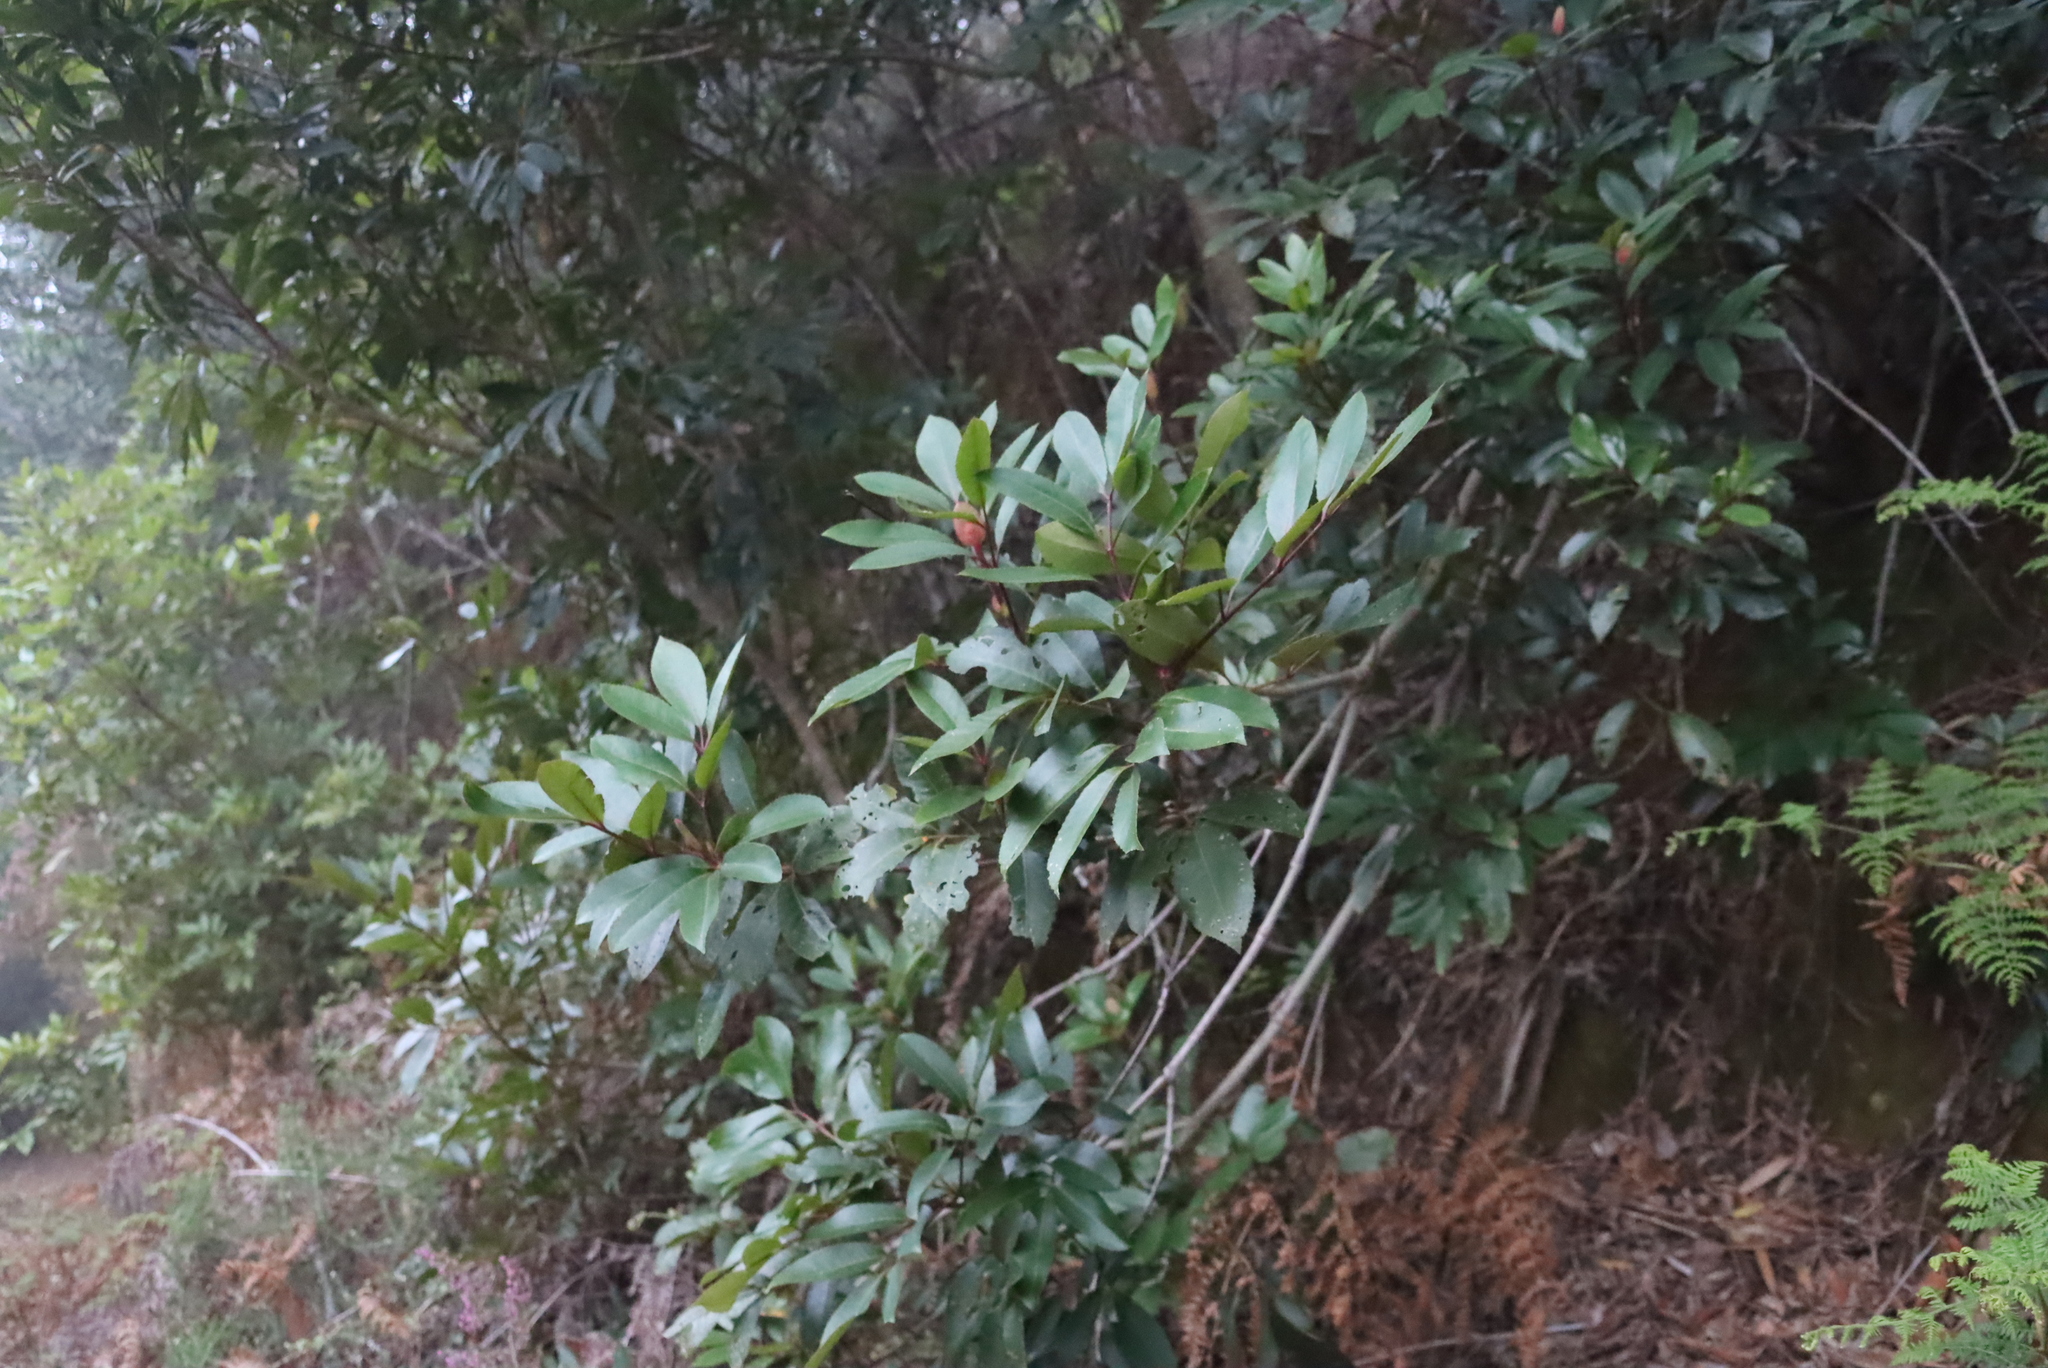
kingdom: Plantae
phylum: Tracheophyta
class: Magnoliopsida
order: Oxalidales
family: Cunoniaceae
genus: Cunonia
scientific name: Cunonia capensis
